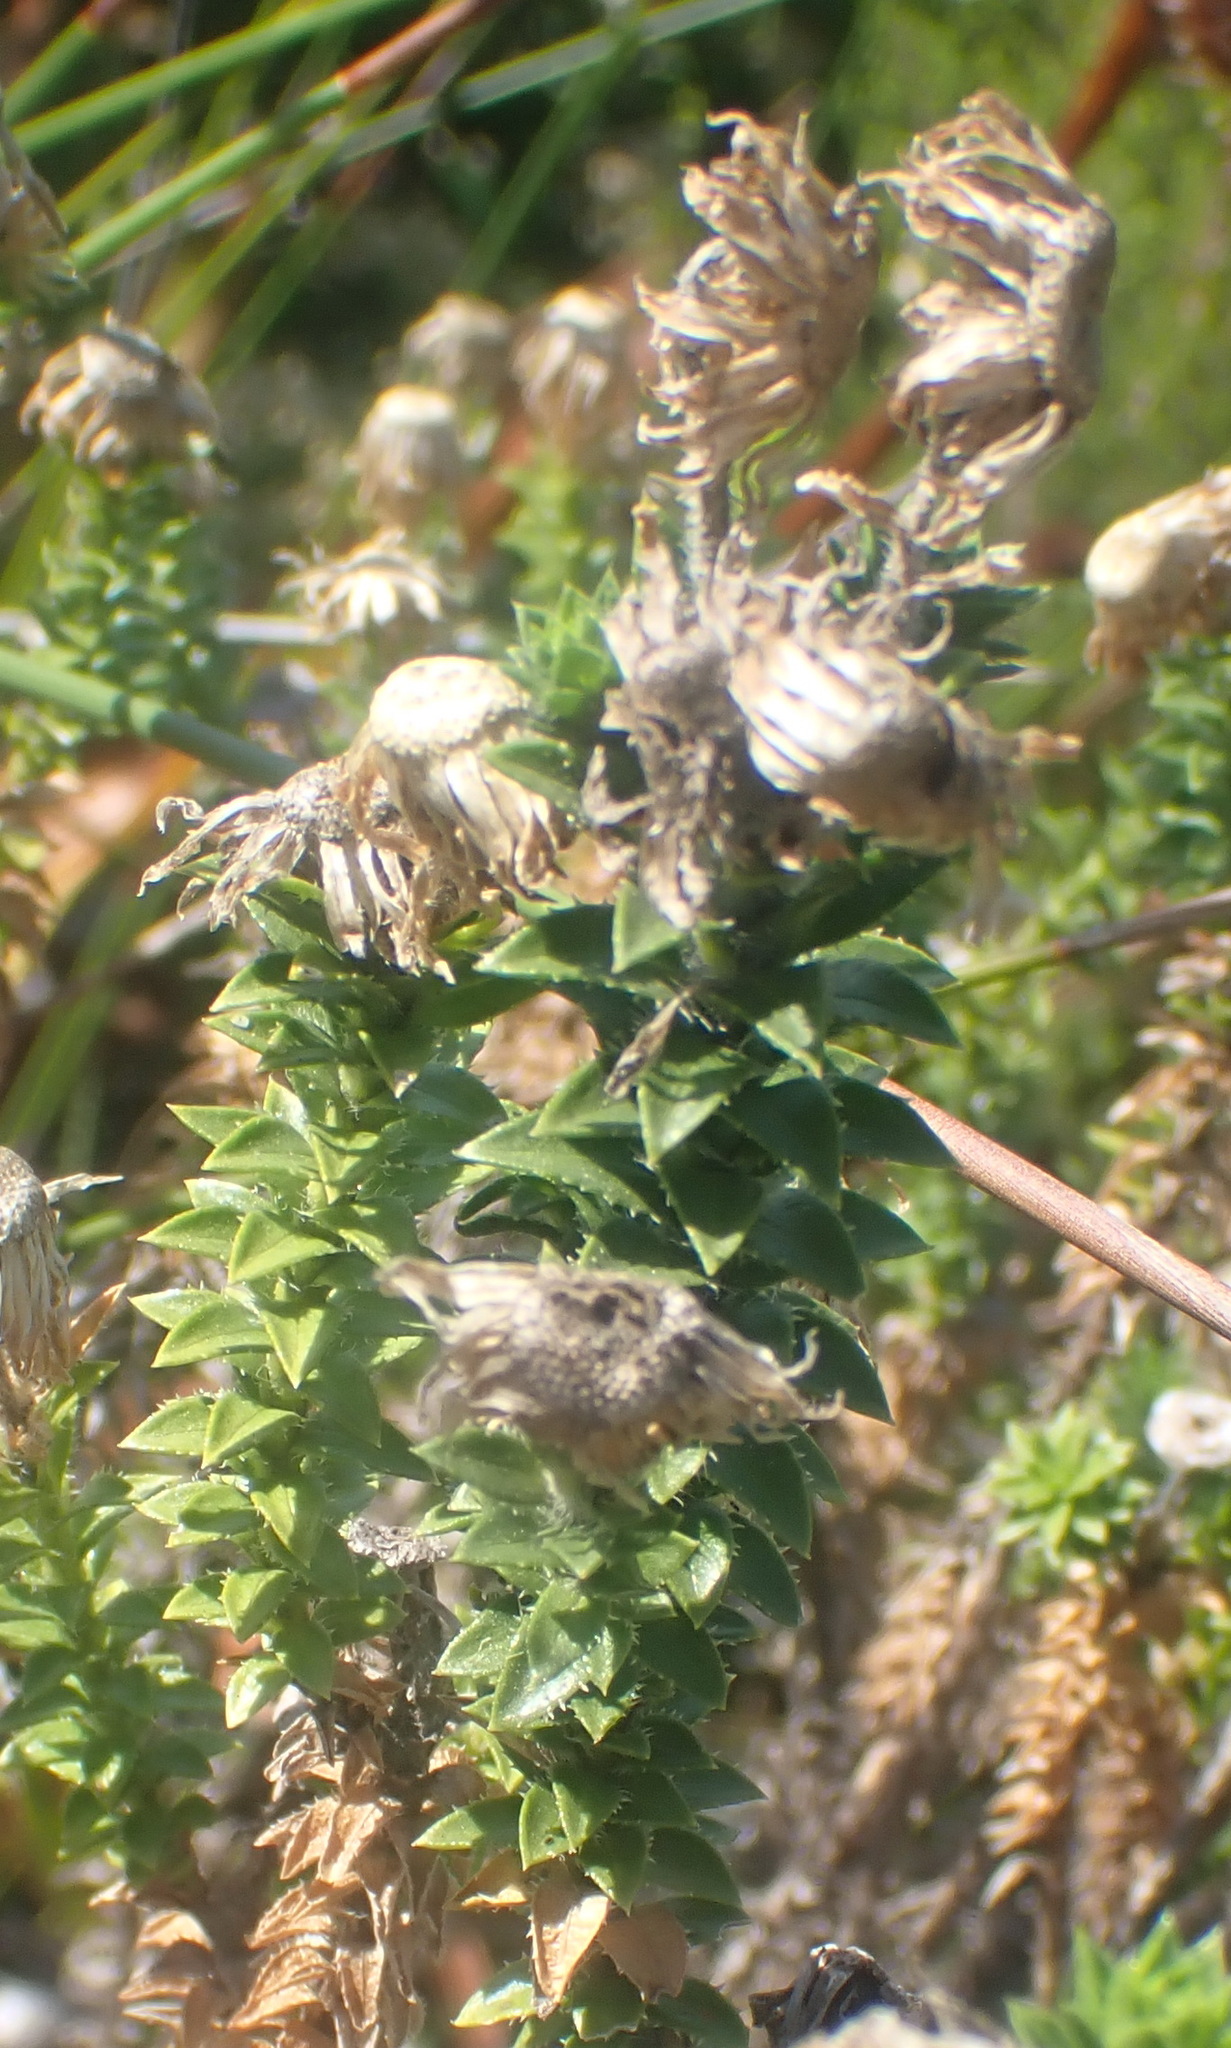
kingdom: Plantae
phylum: Tracheophyta
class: Magnoliopsida
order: Asterales
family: Asteraceae
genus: Felicia
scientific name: Felicia echinata
